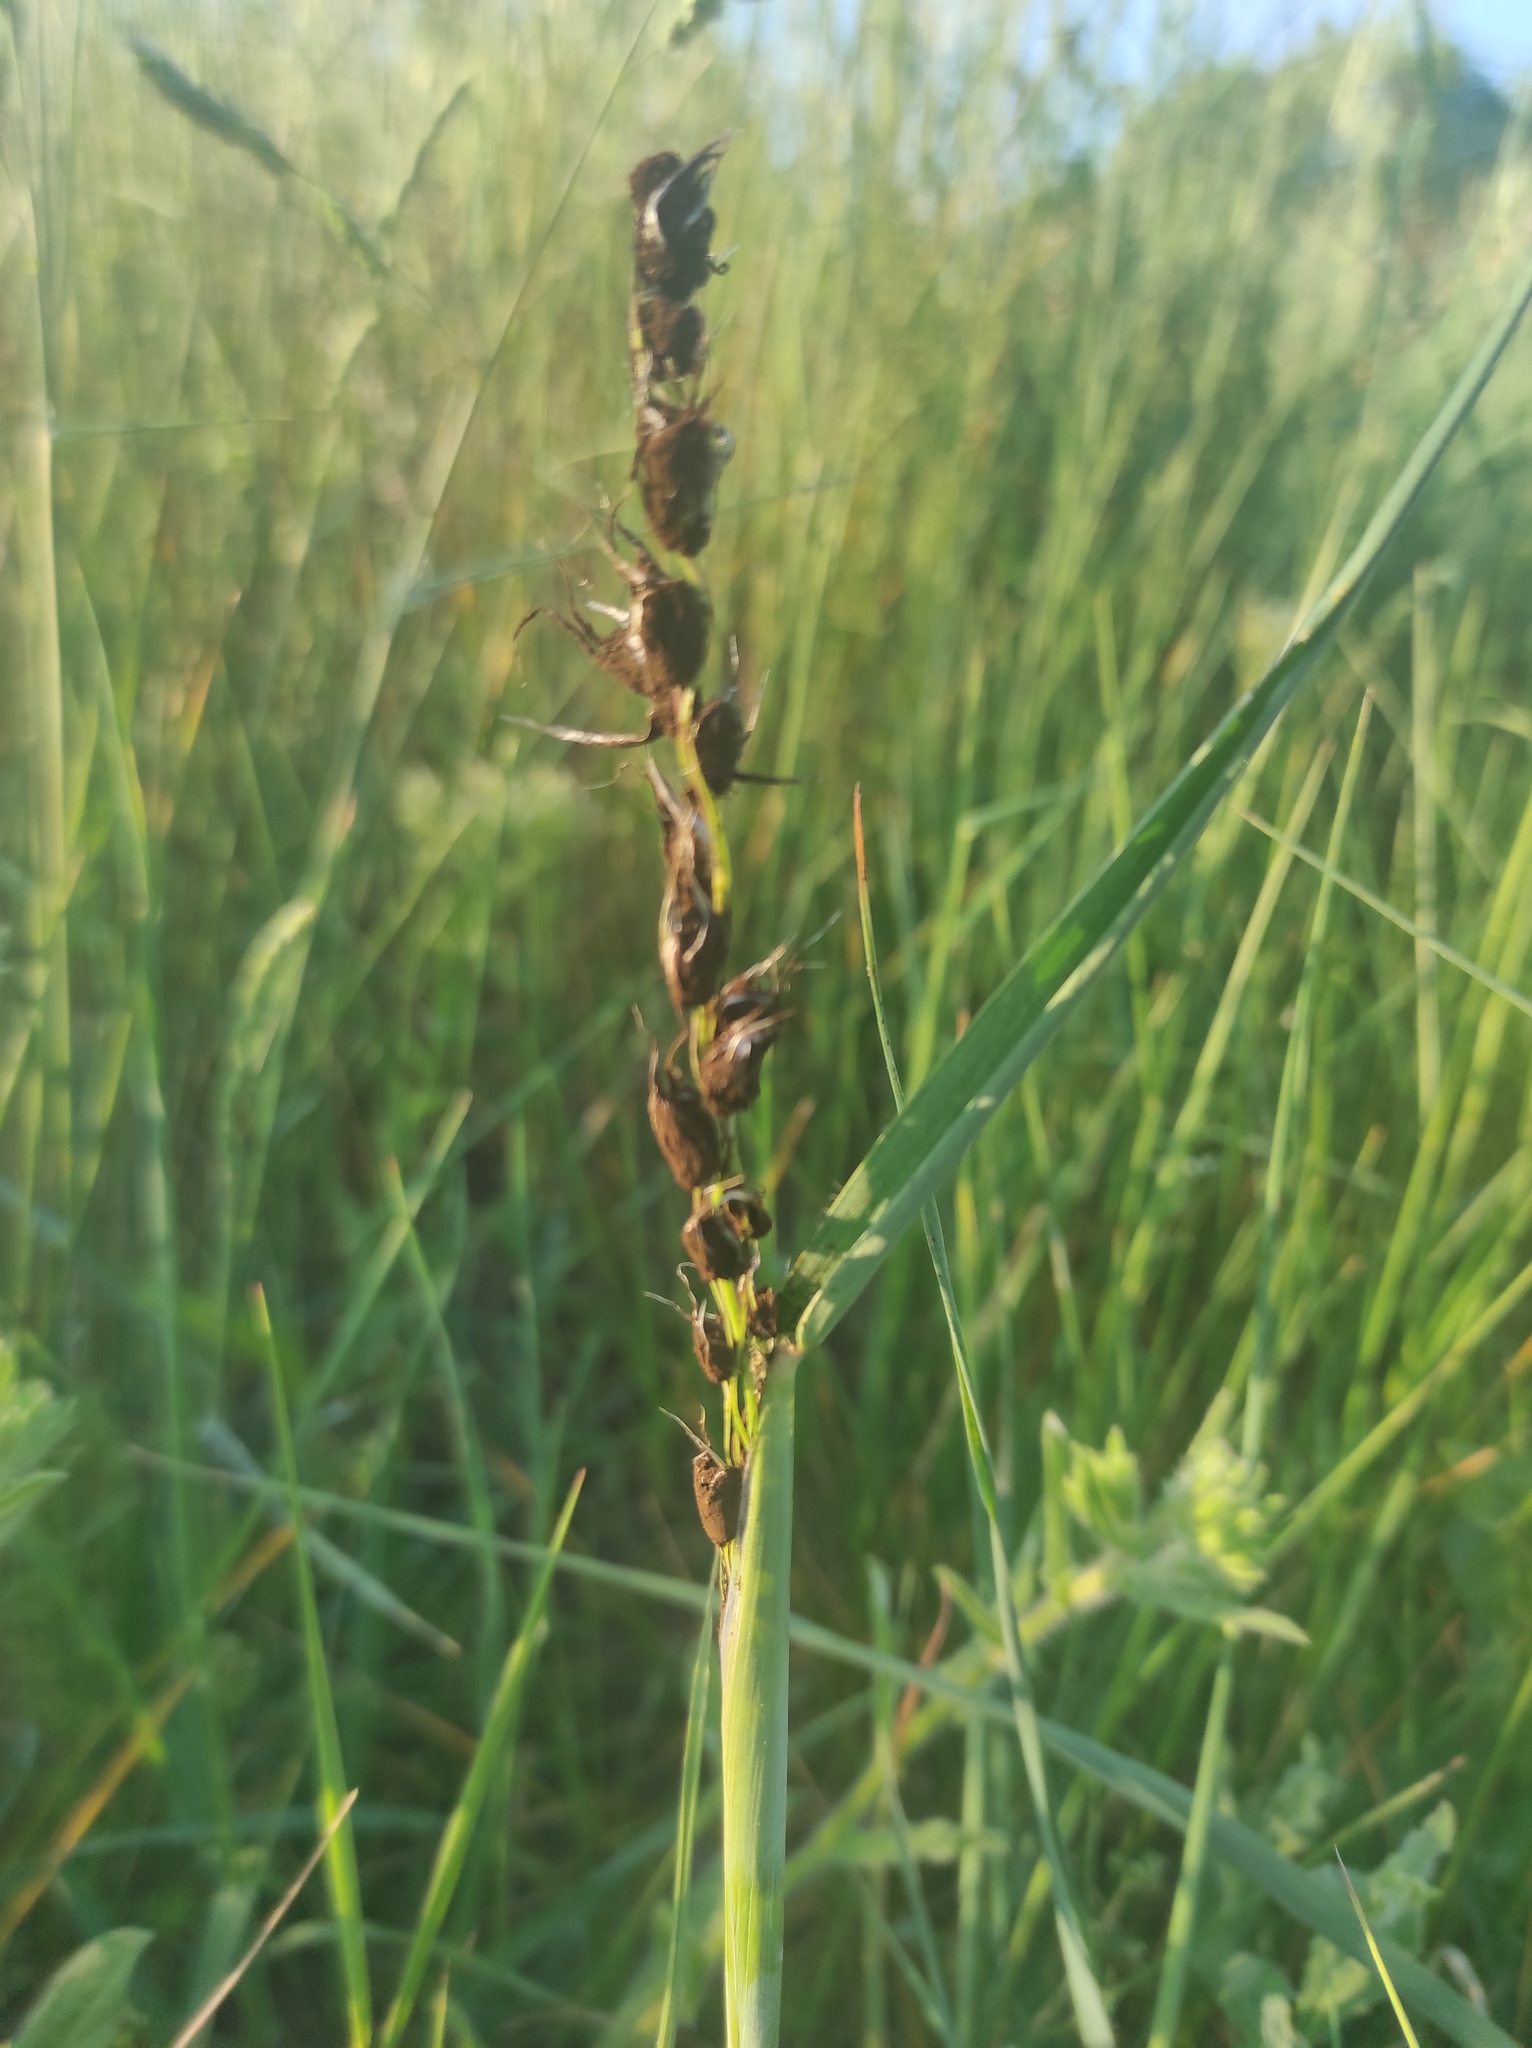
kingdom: Fungi
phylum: Basidiomycota
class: Ustilaginomycetes
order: Ustilaginales
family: Ustilaginaceae
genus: Ustilago
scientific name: Ustilago avenae
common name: Loose smut of oats & oat grass
